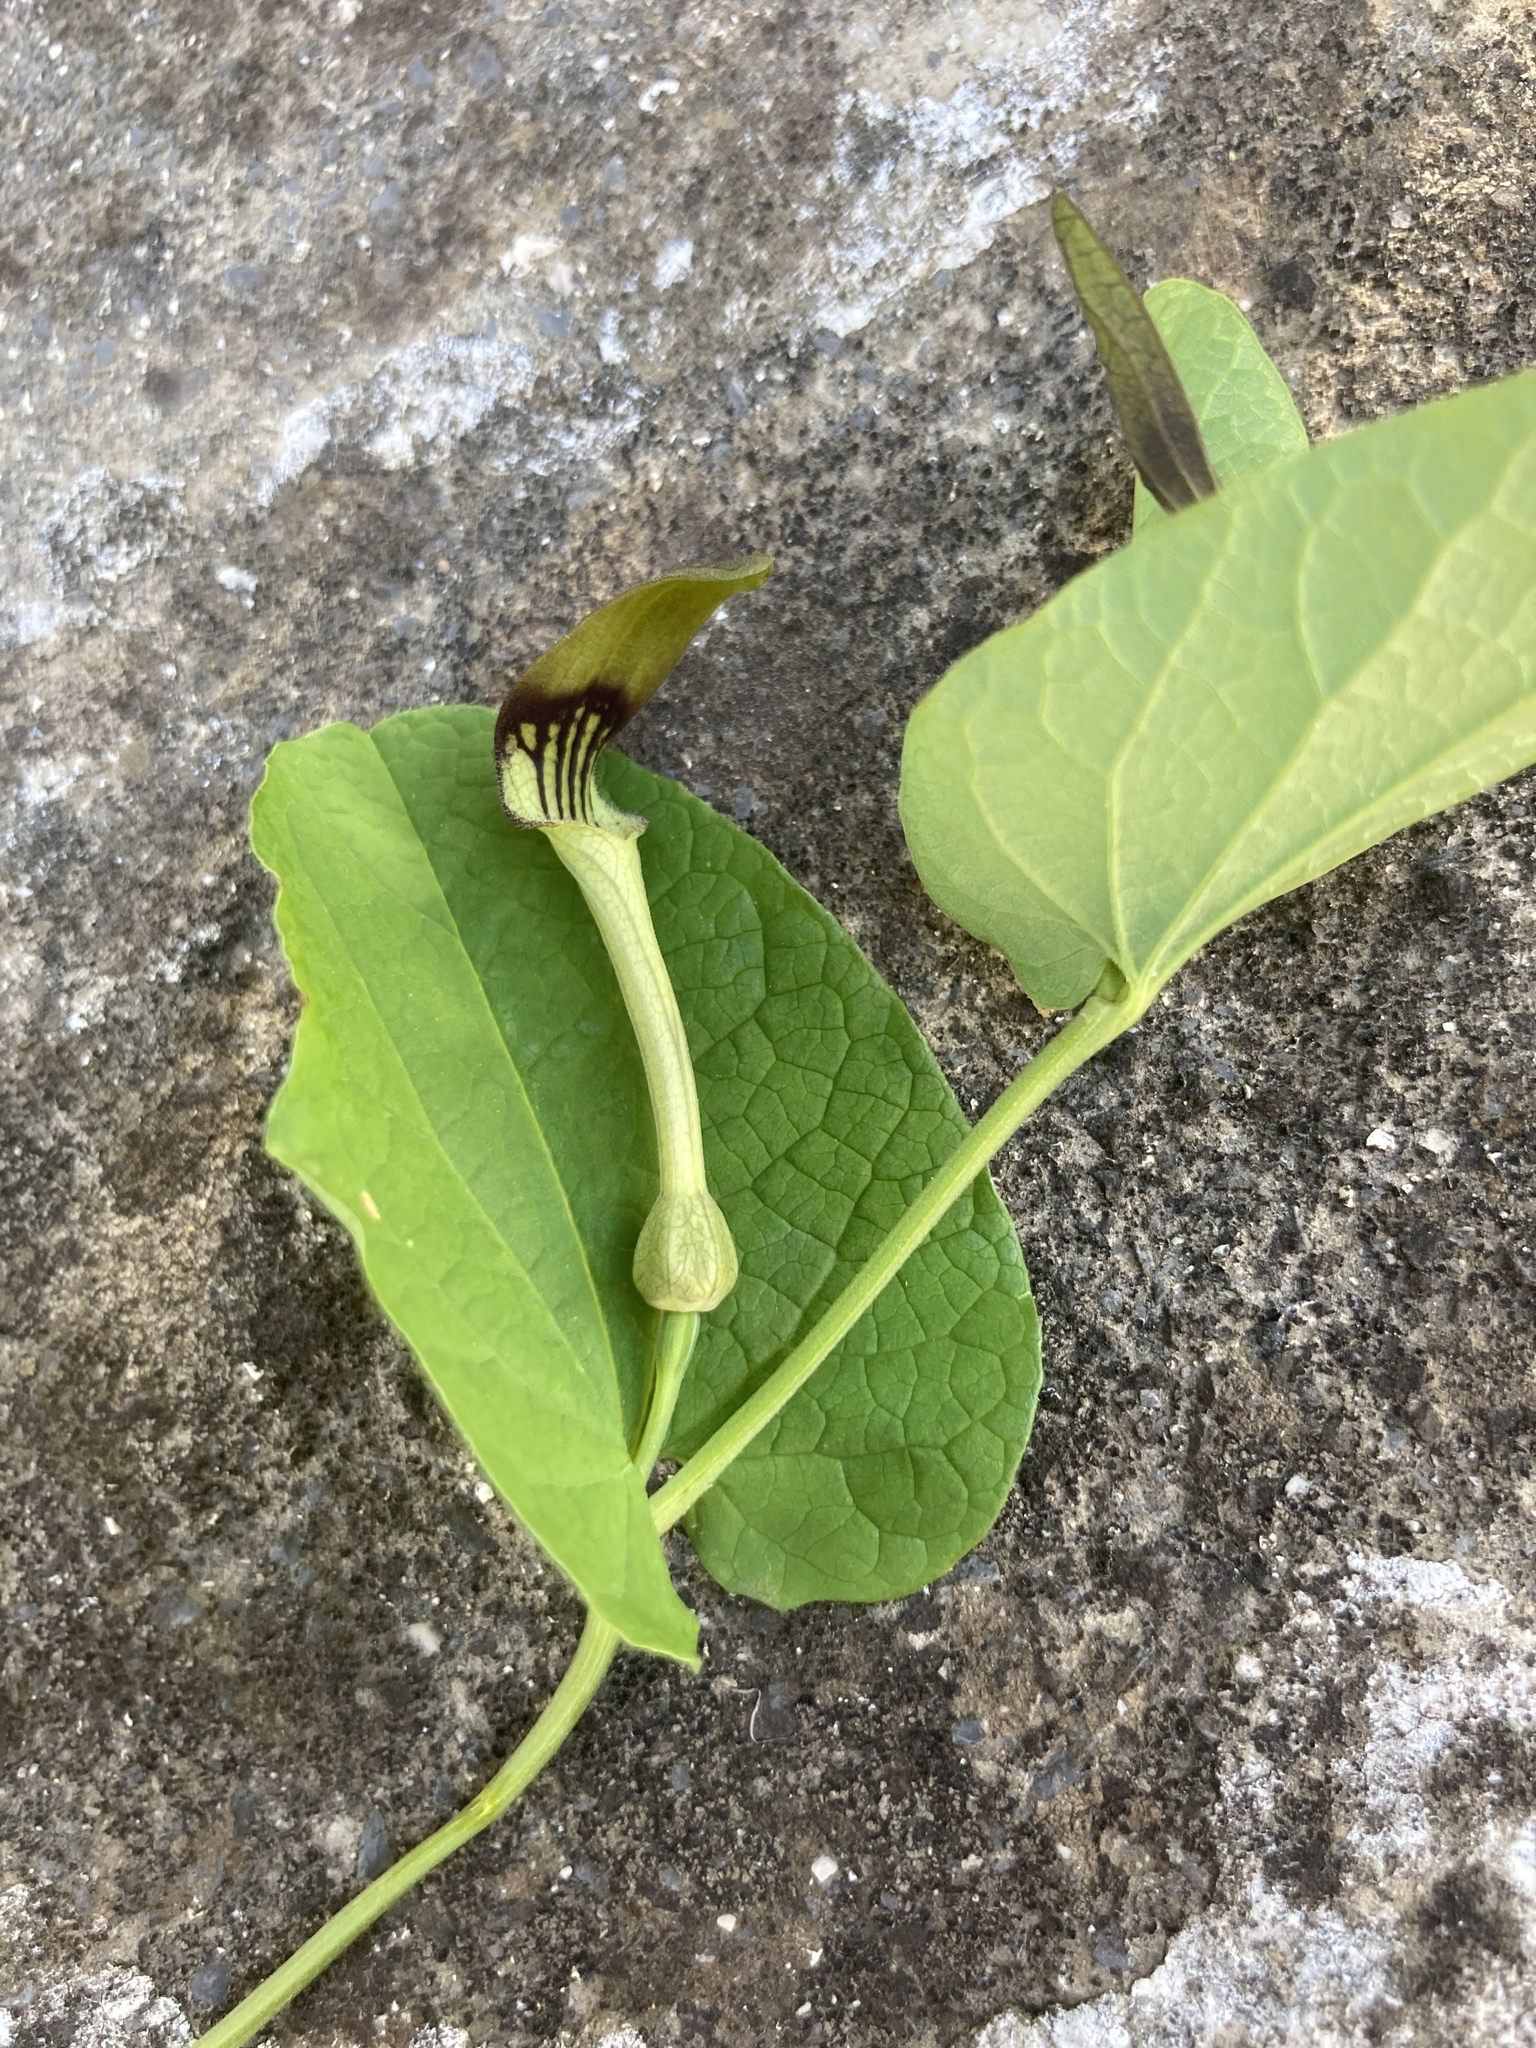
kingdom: Plantae
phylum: Tracheophyta
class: Magnoliopsida
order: Piperales
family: Aristolochiaceae
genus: Aristolochia
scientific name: Aristolochia rotunda
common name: Smearwort
